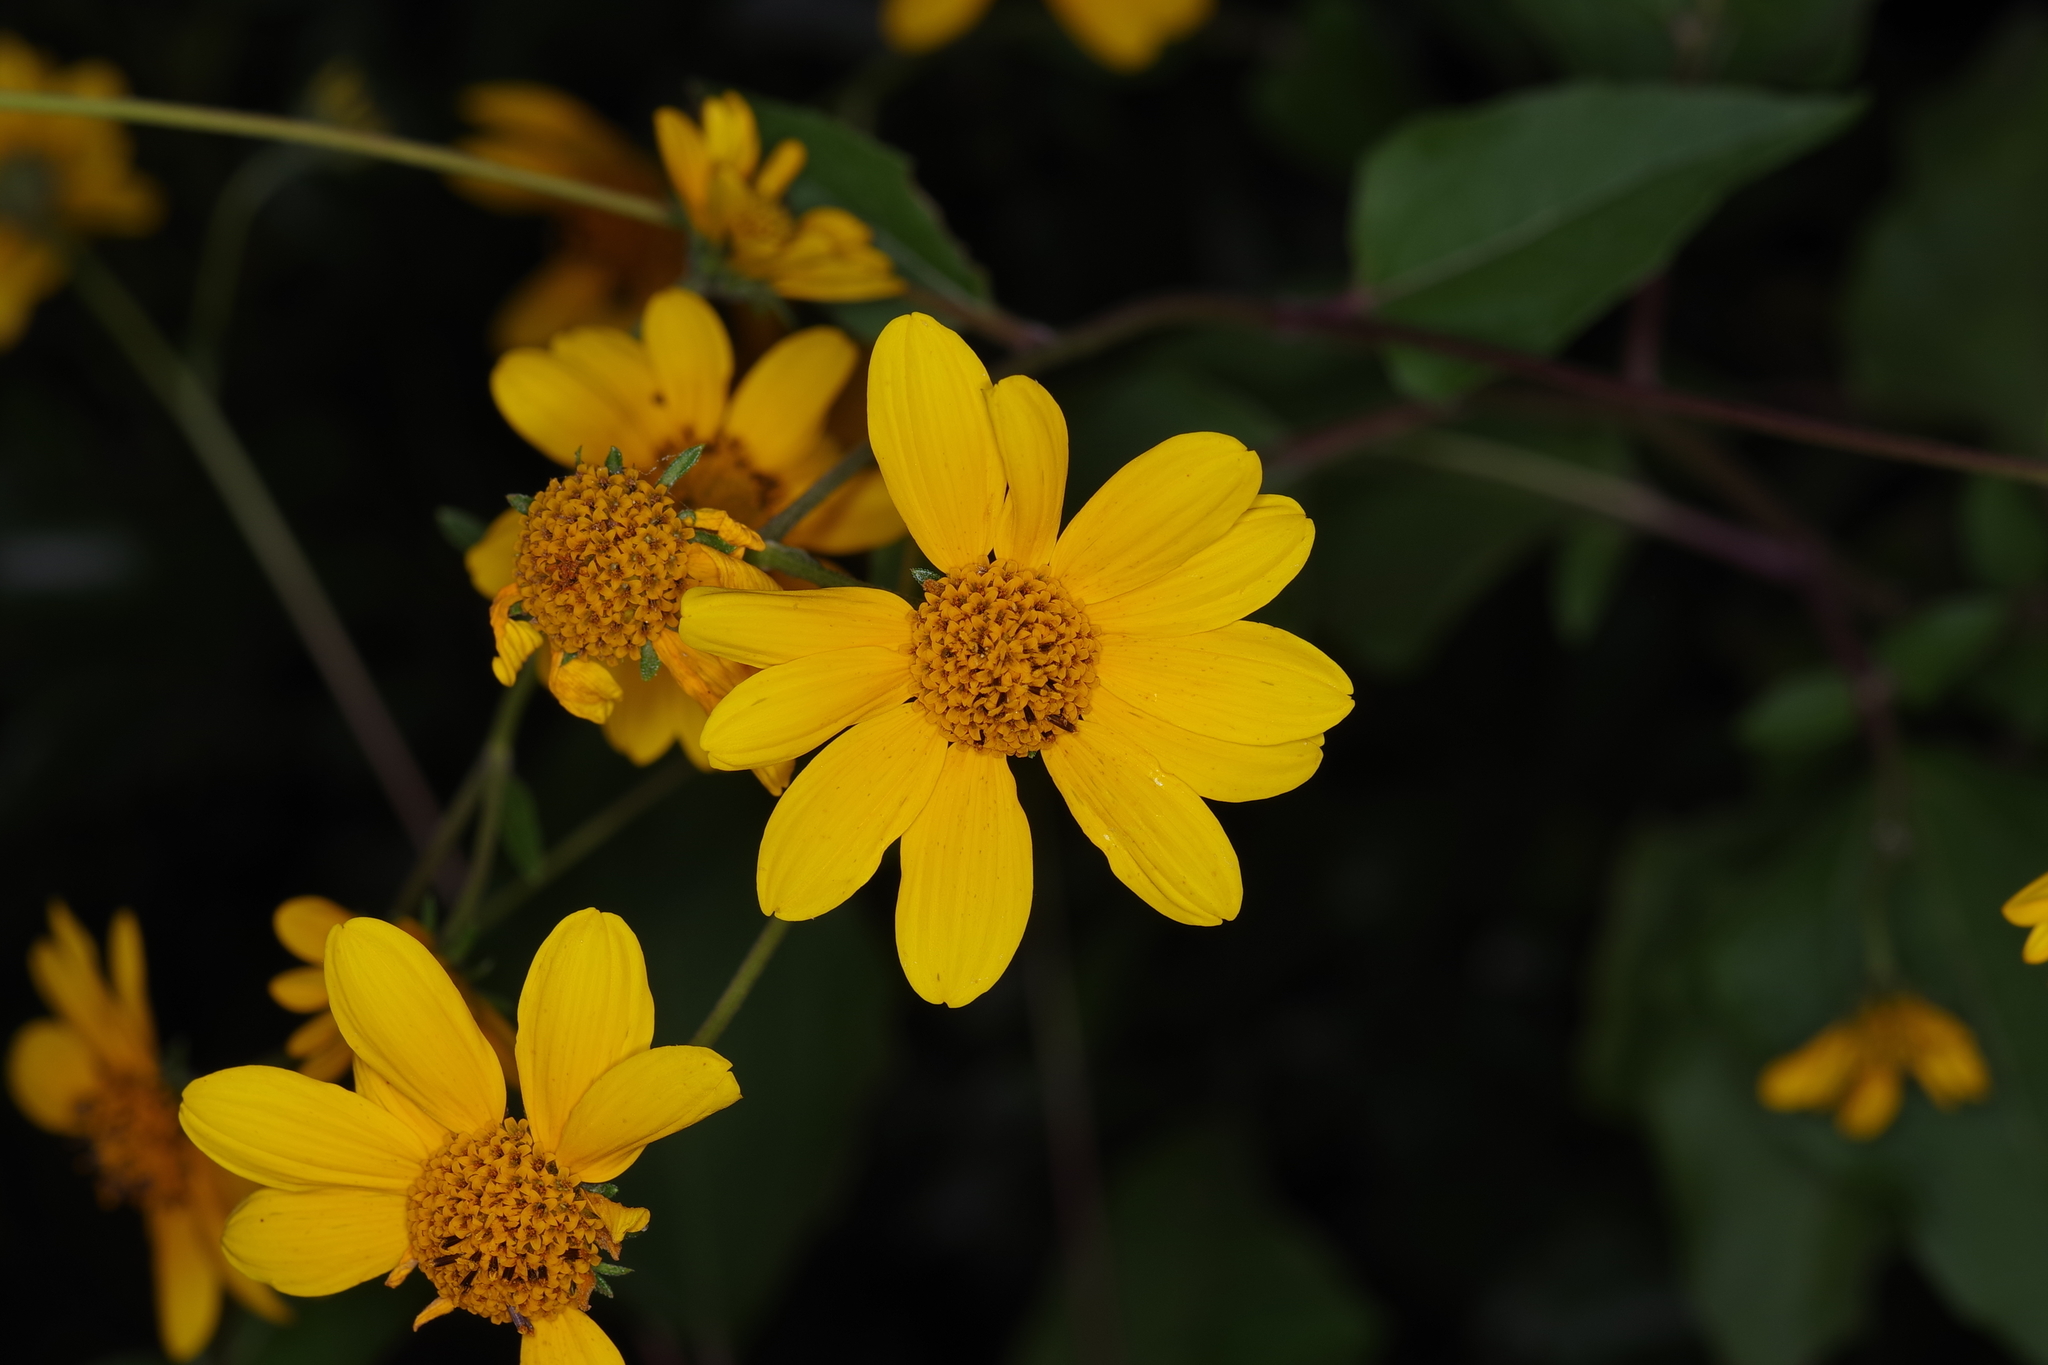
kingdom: Plantae
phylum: Tracheophyta
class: Magnoliopsida
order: Asterales
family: Asteraceae
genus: Viguiera
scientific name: Viguiera dentata
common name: Toothleaf
